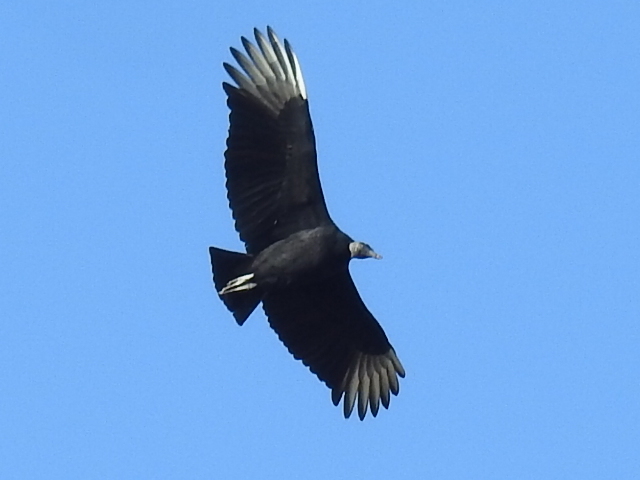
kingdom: Animalia
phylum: Chordata
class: Aves
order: Accipitriformes
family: Cathartidae
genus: Coragyps
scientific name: Coragyps atratus
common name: Black vulture
